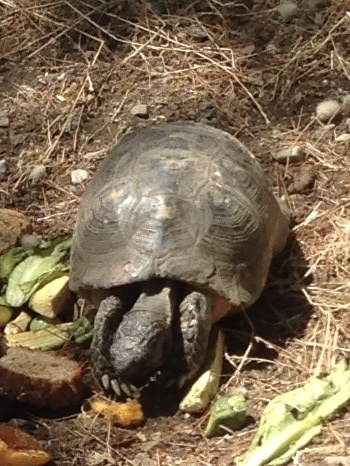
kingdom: Animalia
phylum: Chordata
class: Testudines
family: Testudinidae
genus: Testudo
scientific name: Testudo marginata
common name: Marginated tortoise
